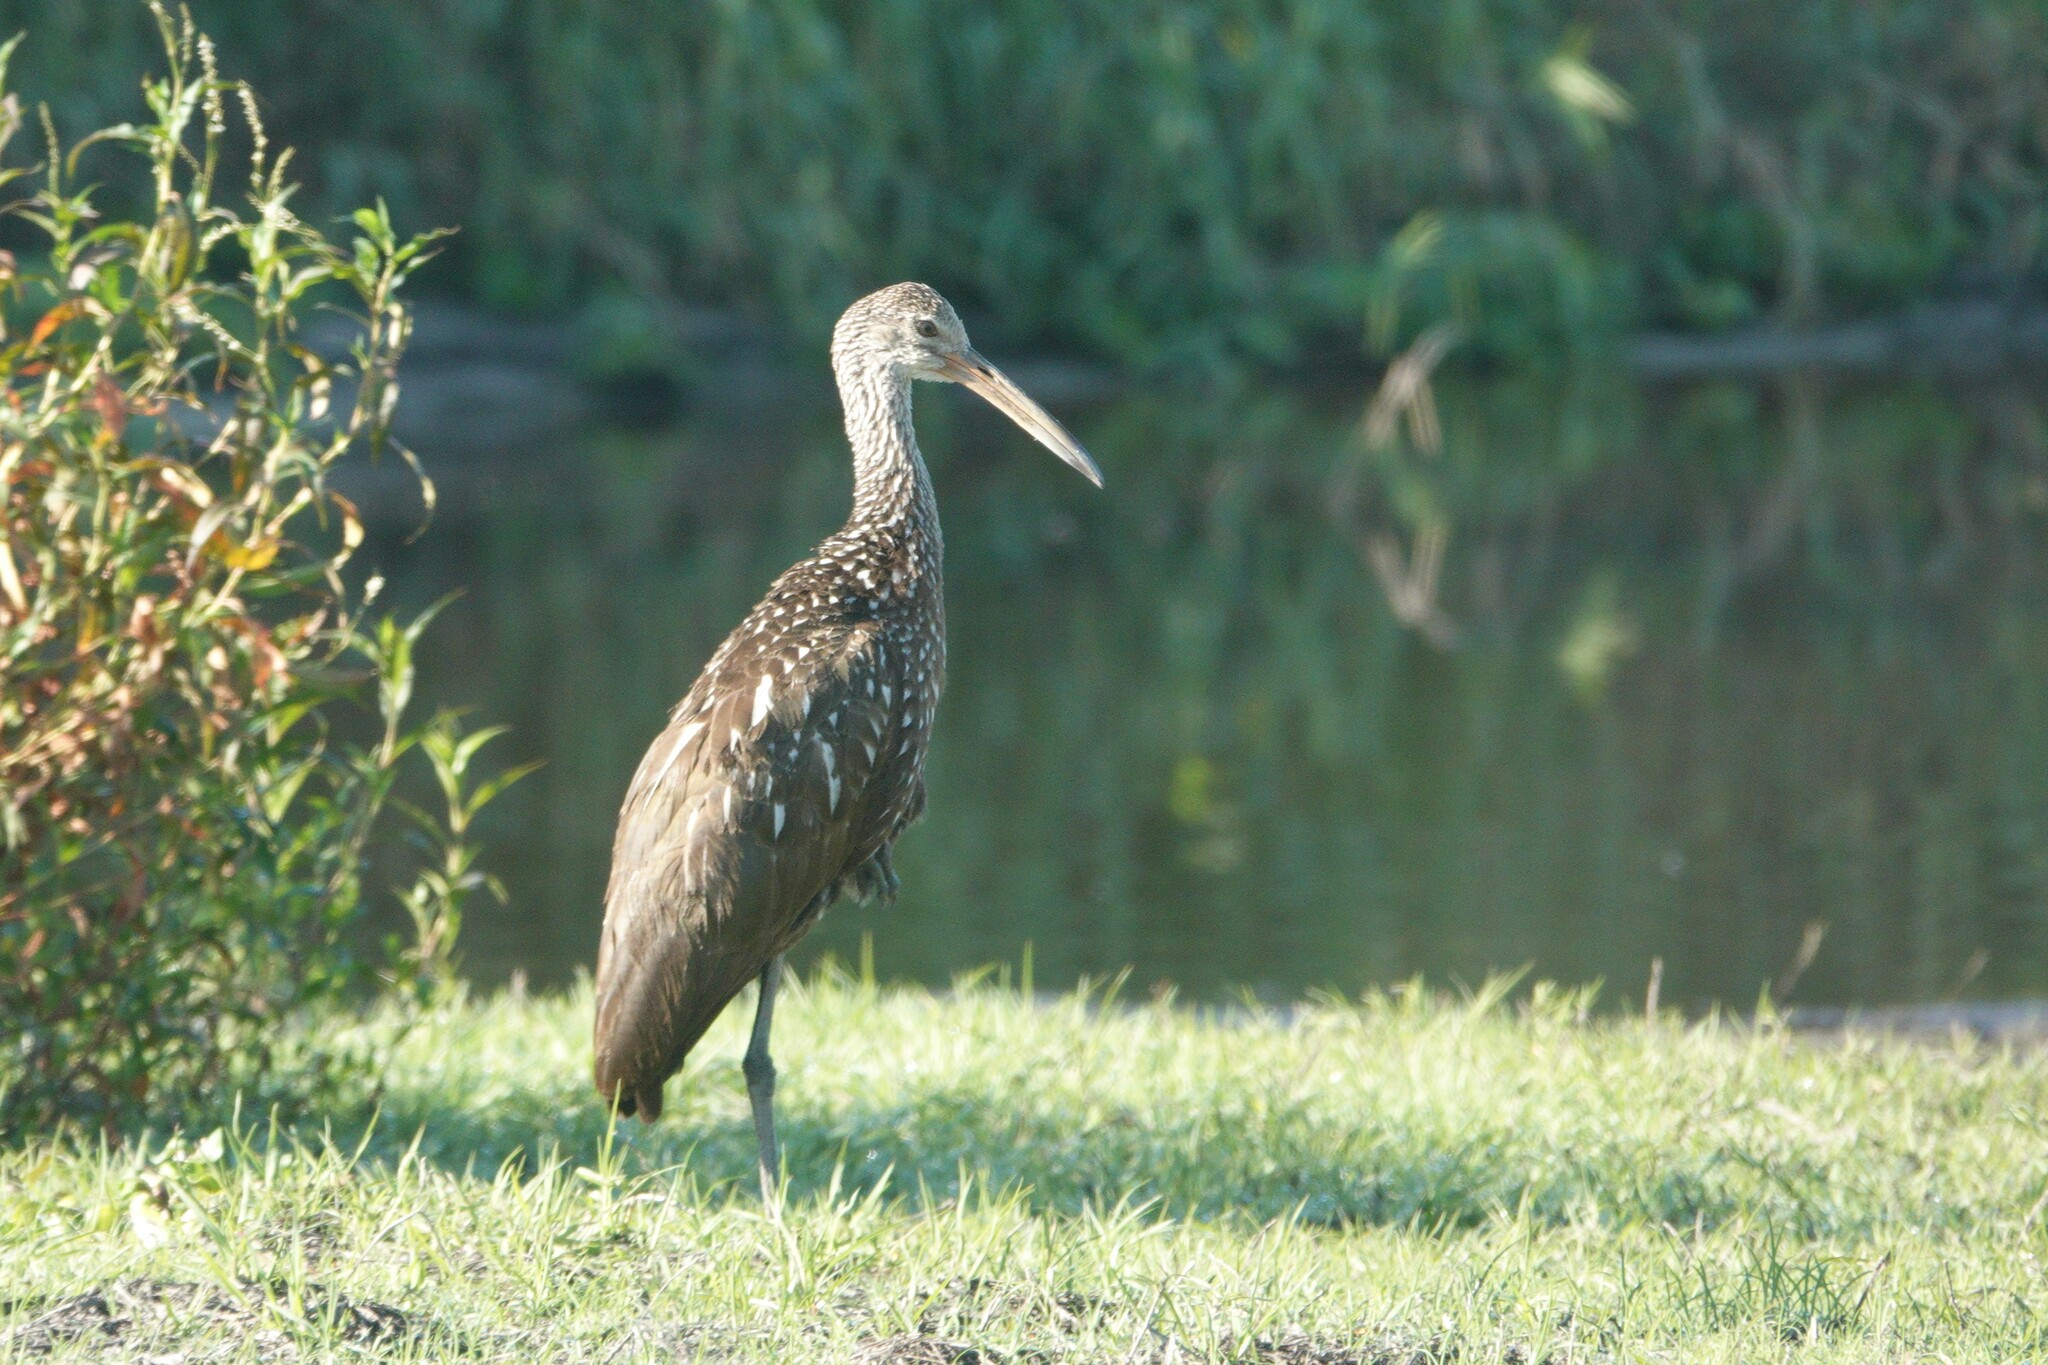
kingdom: Animalia
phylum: Chordata
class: Aves
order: Gruiformes
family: Aramidae
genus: Aramus
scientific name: Aramus guarauna
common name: Limpkin
